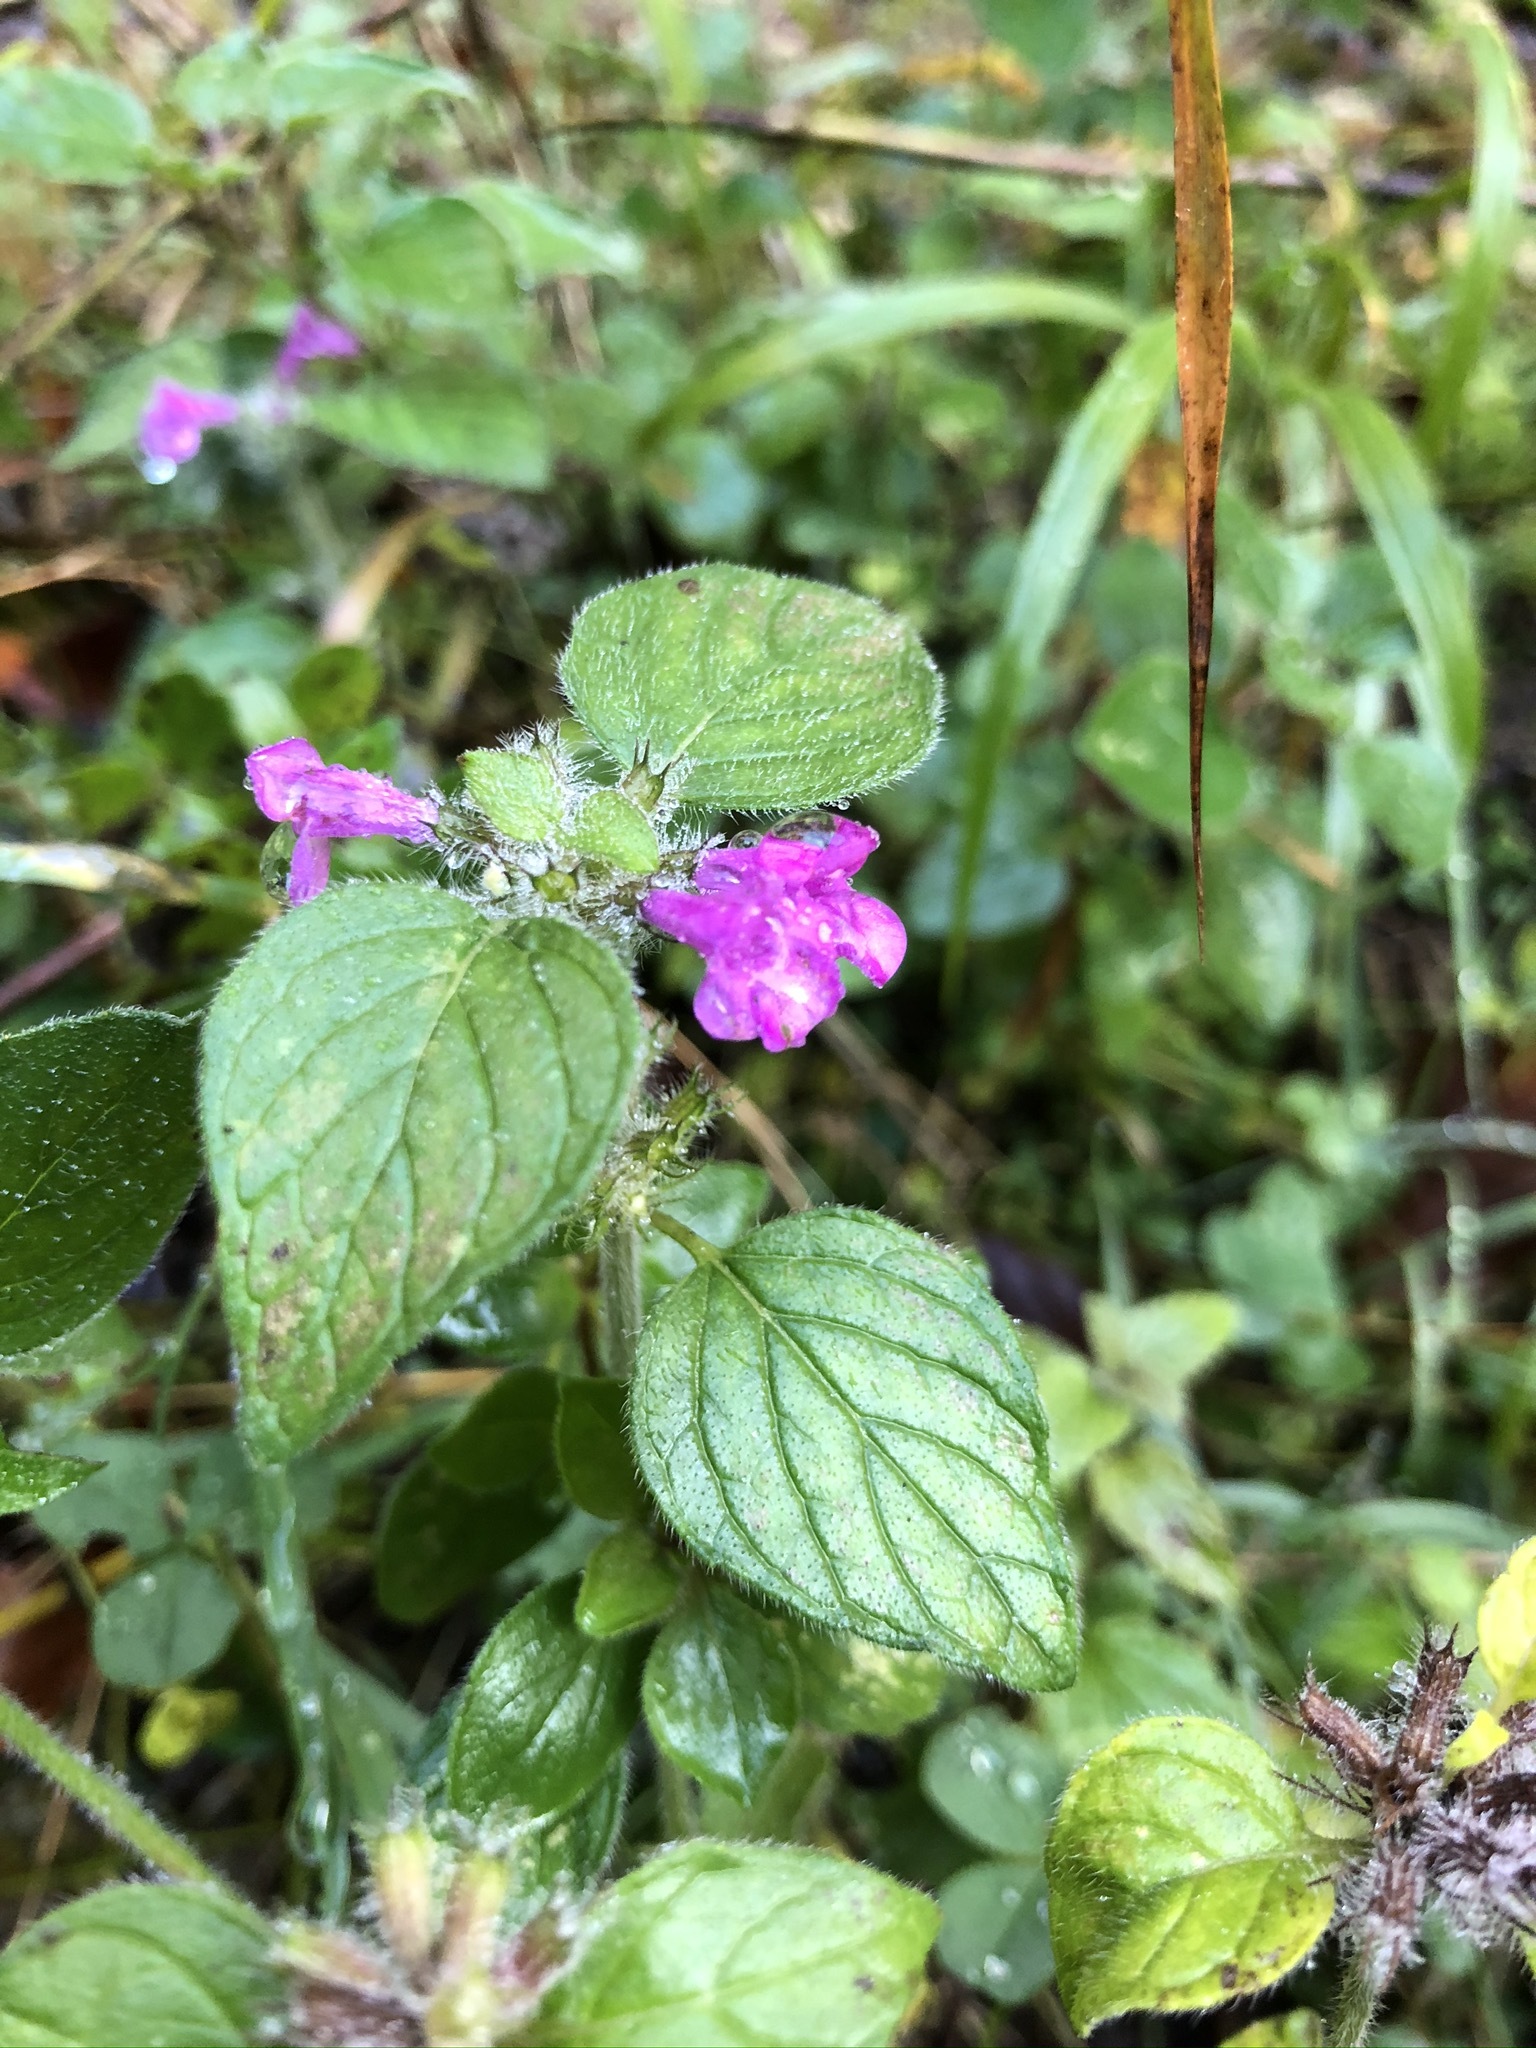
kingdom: Plantae
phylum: Tracheophyta
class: Magnoliopsida
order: Lamiales
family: Lamiaceae
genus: Clinopodium
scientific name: Clinopodium vulgare
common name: Wild basil
